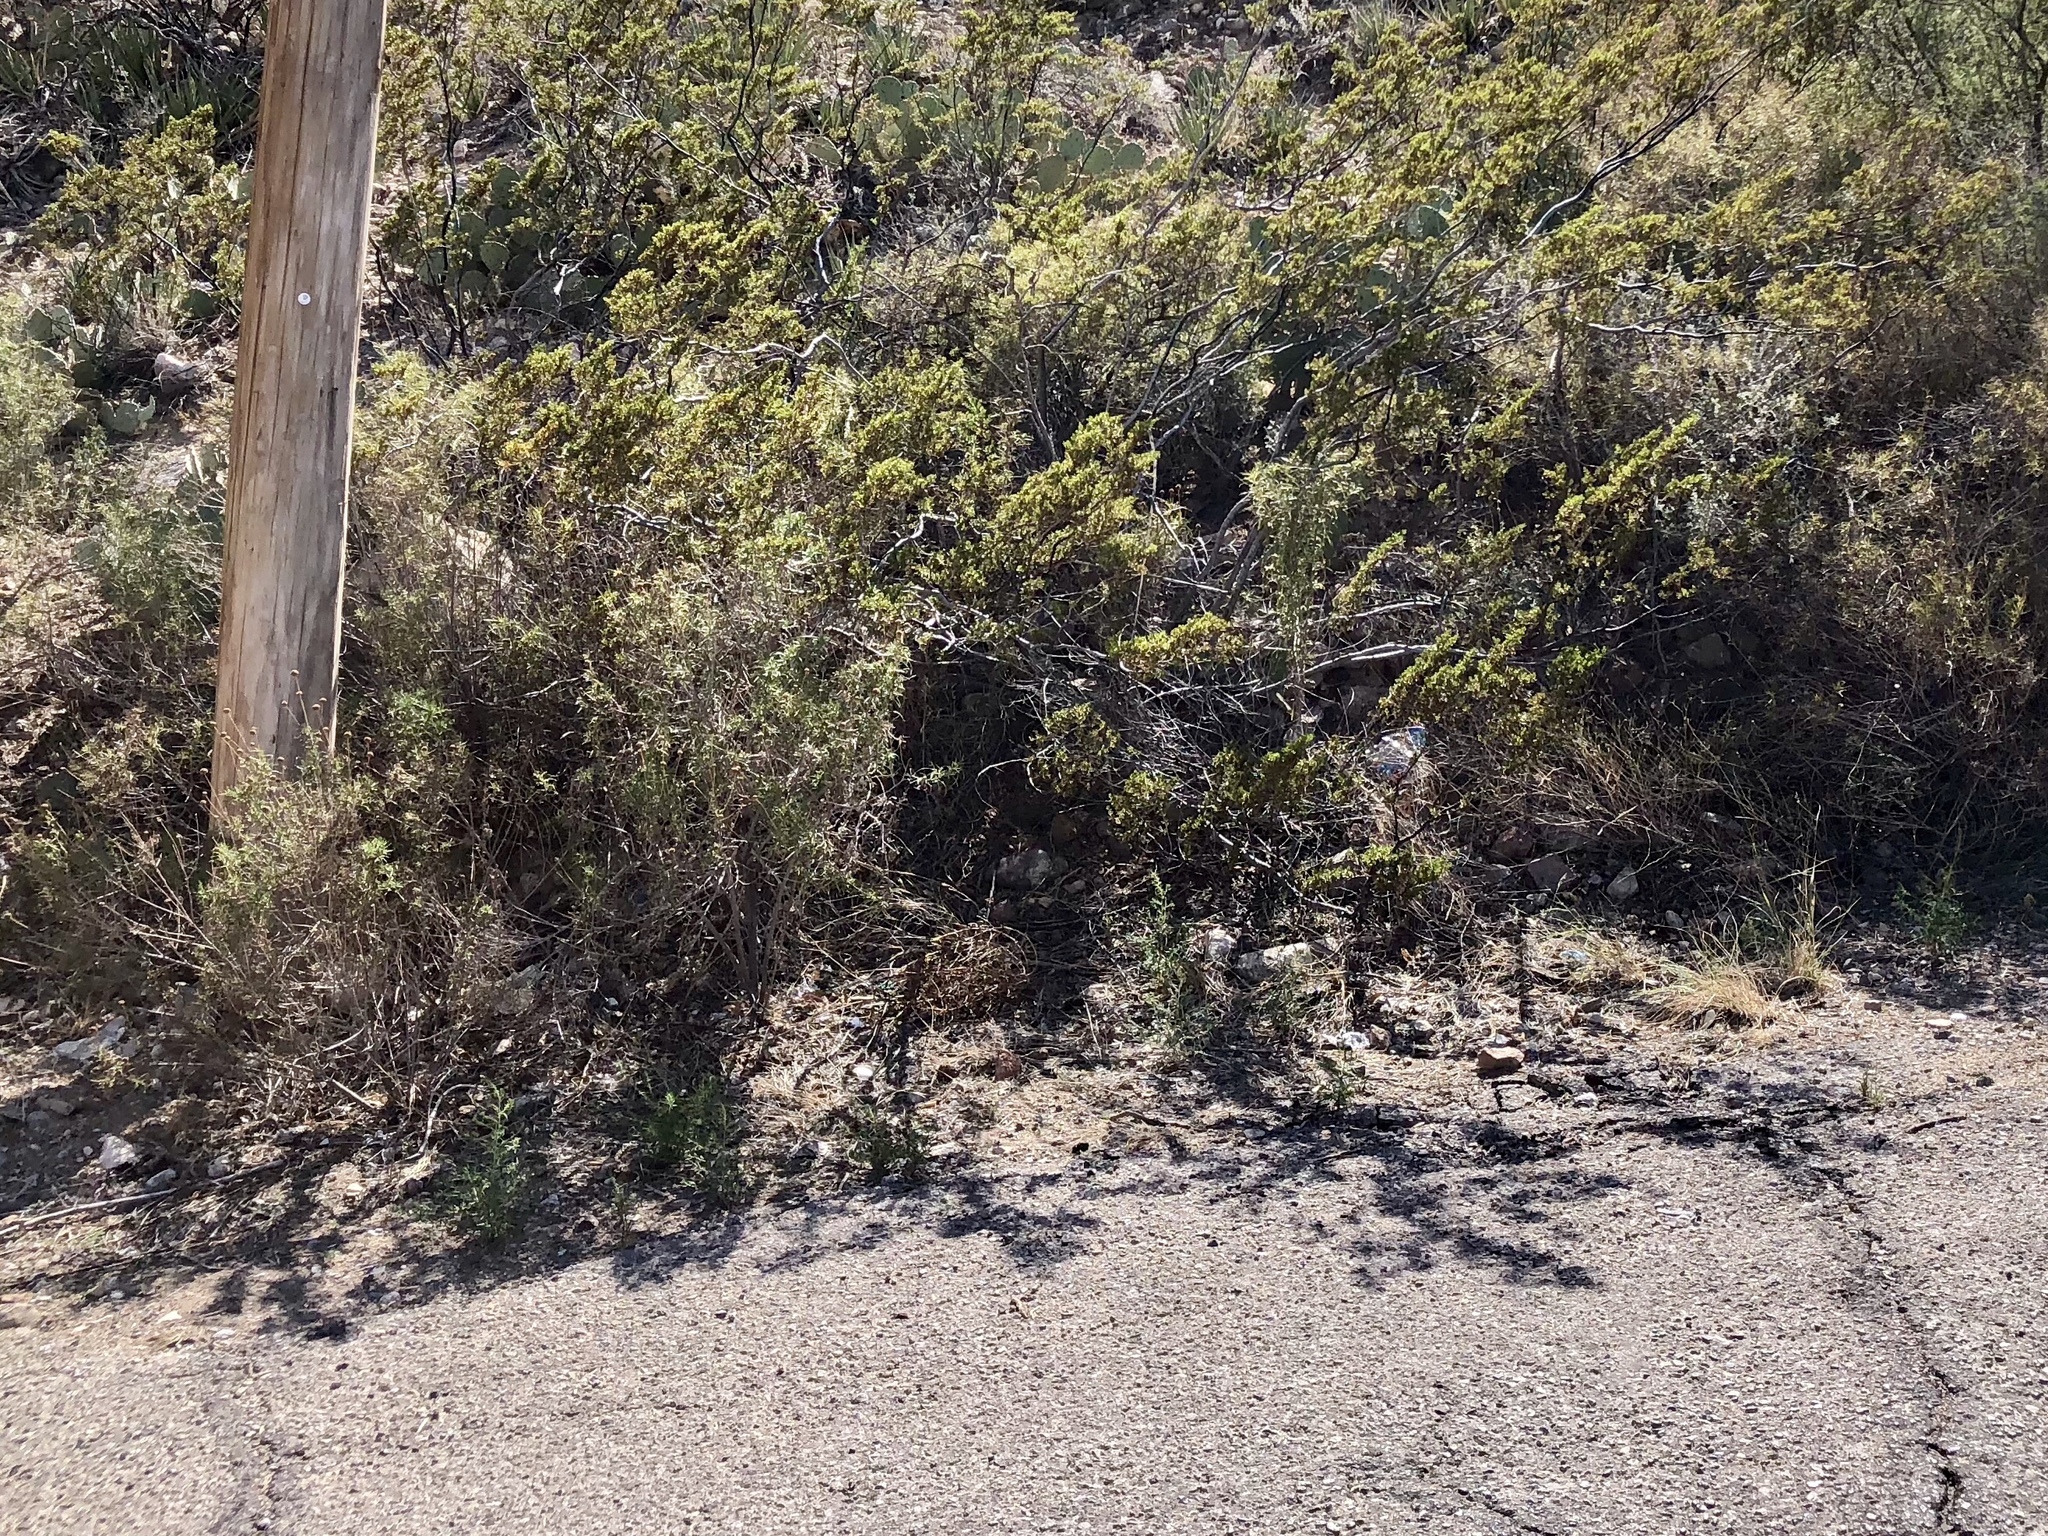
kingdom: Plantae
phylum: Tracheophyta
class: Magnoliopsida
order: Zygophyllales
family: Zygophyllaceae
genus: Larrea
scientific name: Larrea tridentata
